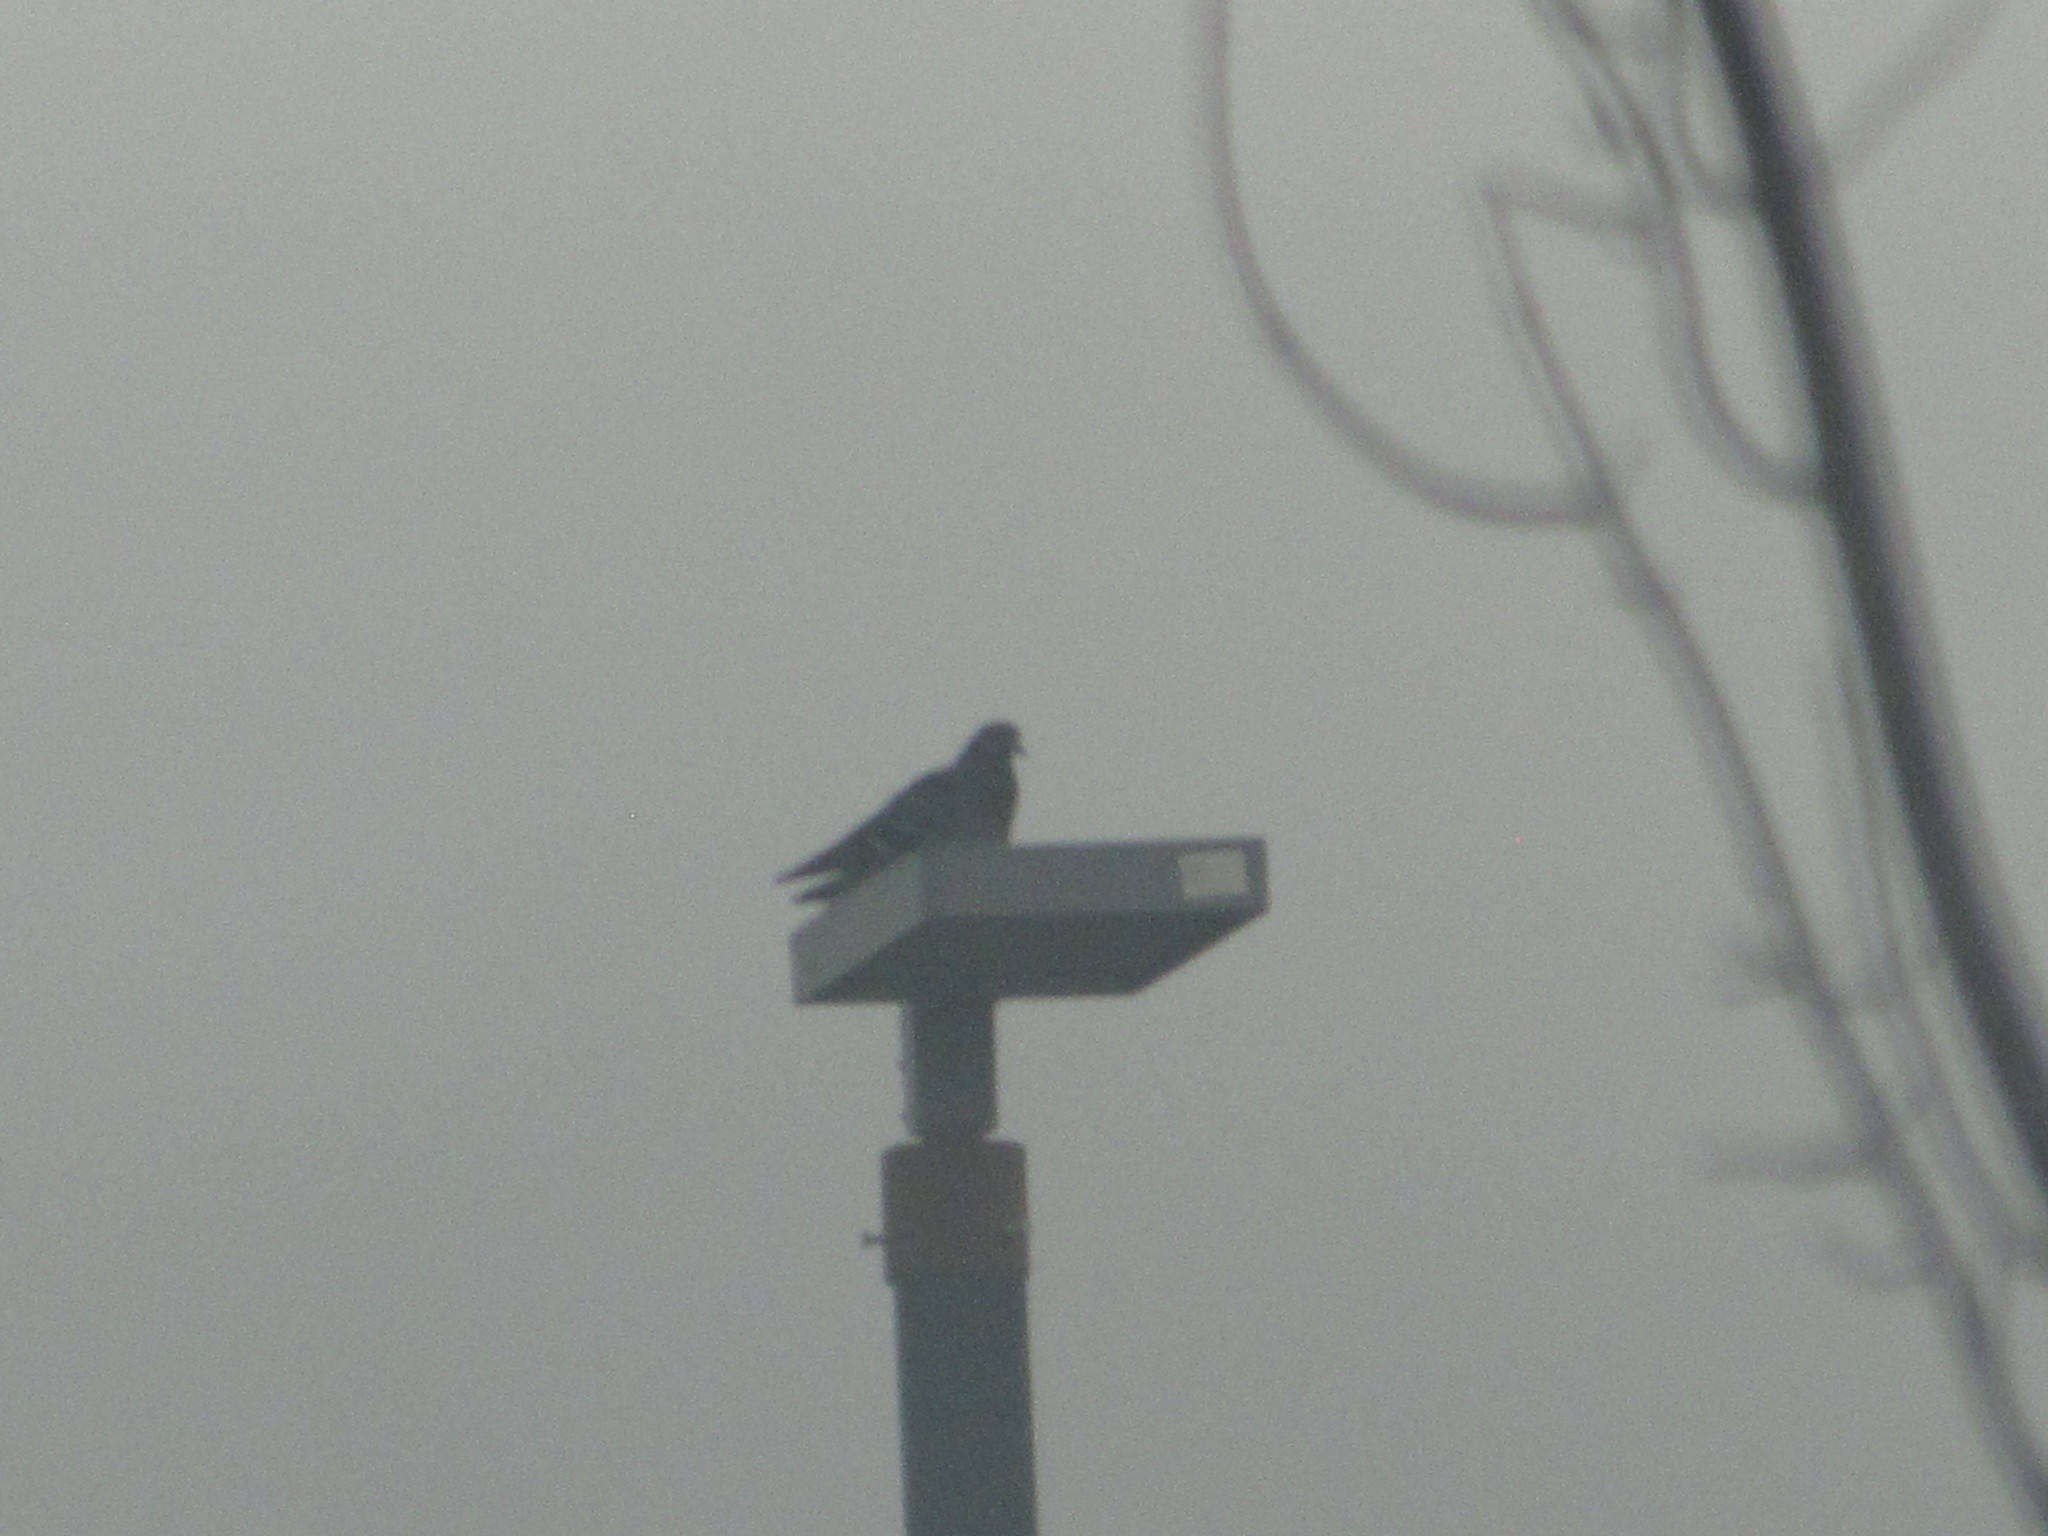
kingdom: Animalia
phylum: Chordata
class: Aves
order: Columbiformes
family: Columbidae
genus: Columba
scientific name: Columba livia
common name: Rock pigeon
